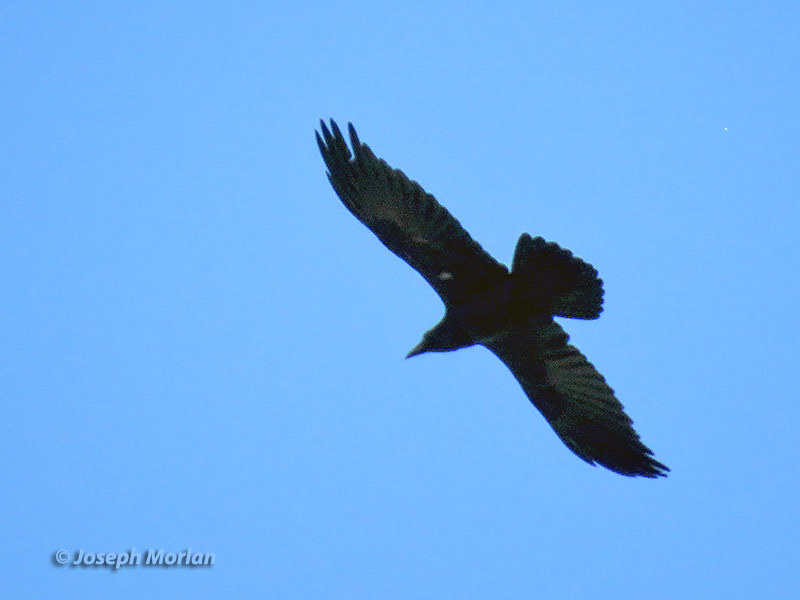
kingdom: Animalia
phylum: Chordata
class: Aves
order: Passeriformes
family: Corvidae
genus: Corvus
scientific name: Corvus corax
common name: Common raven
